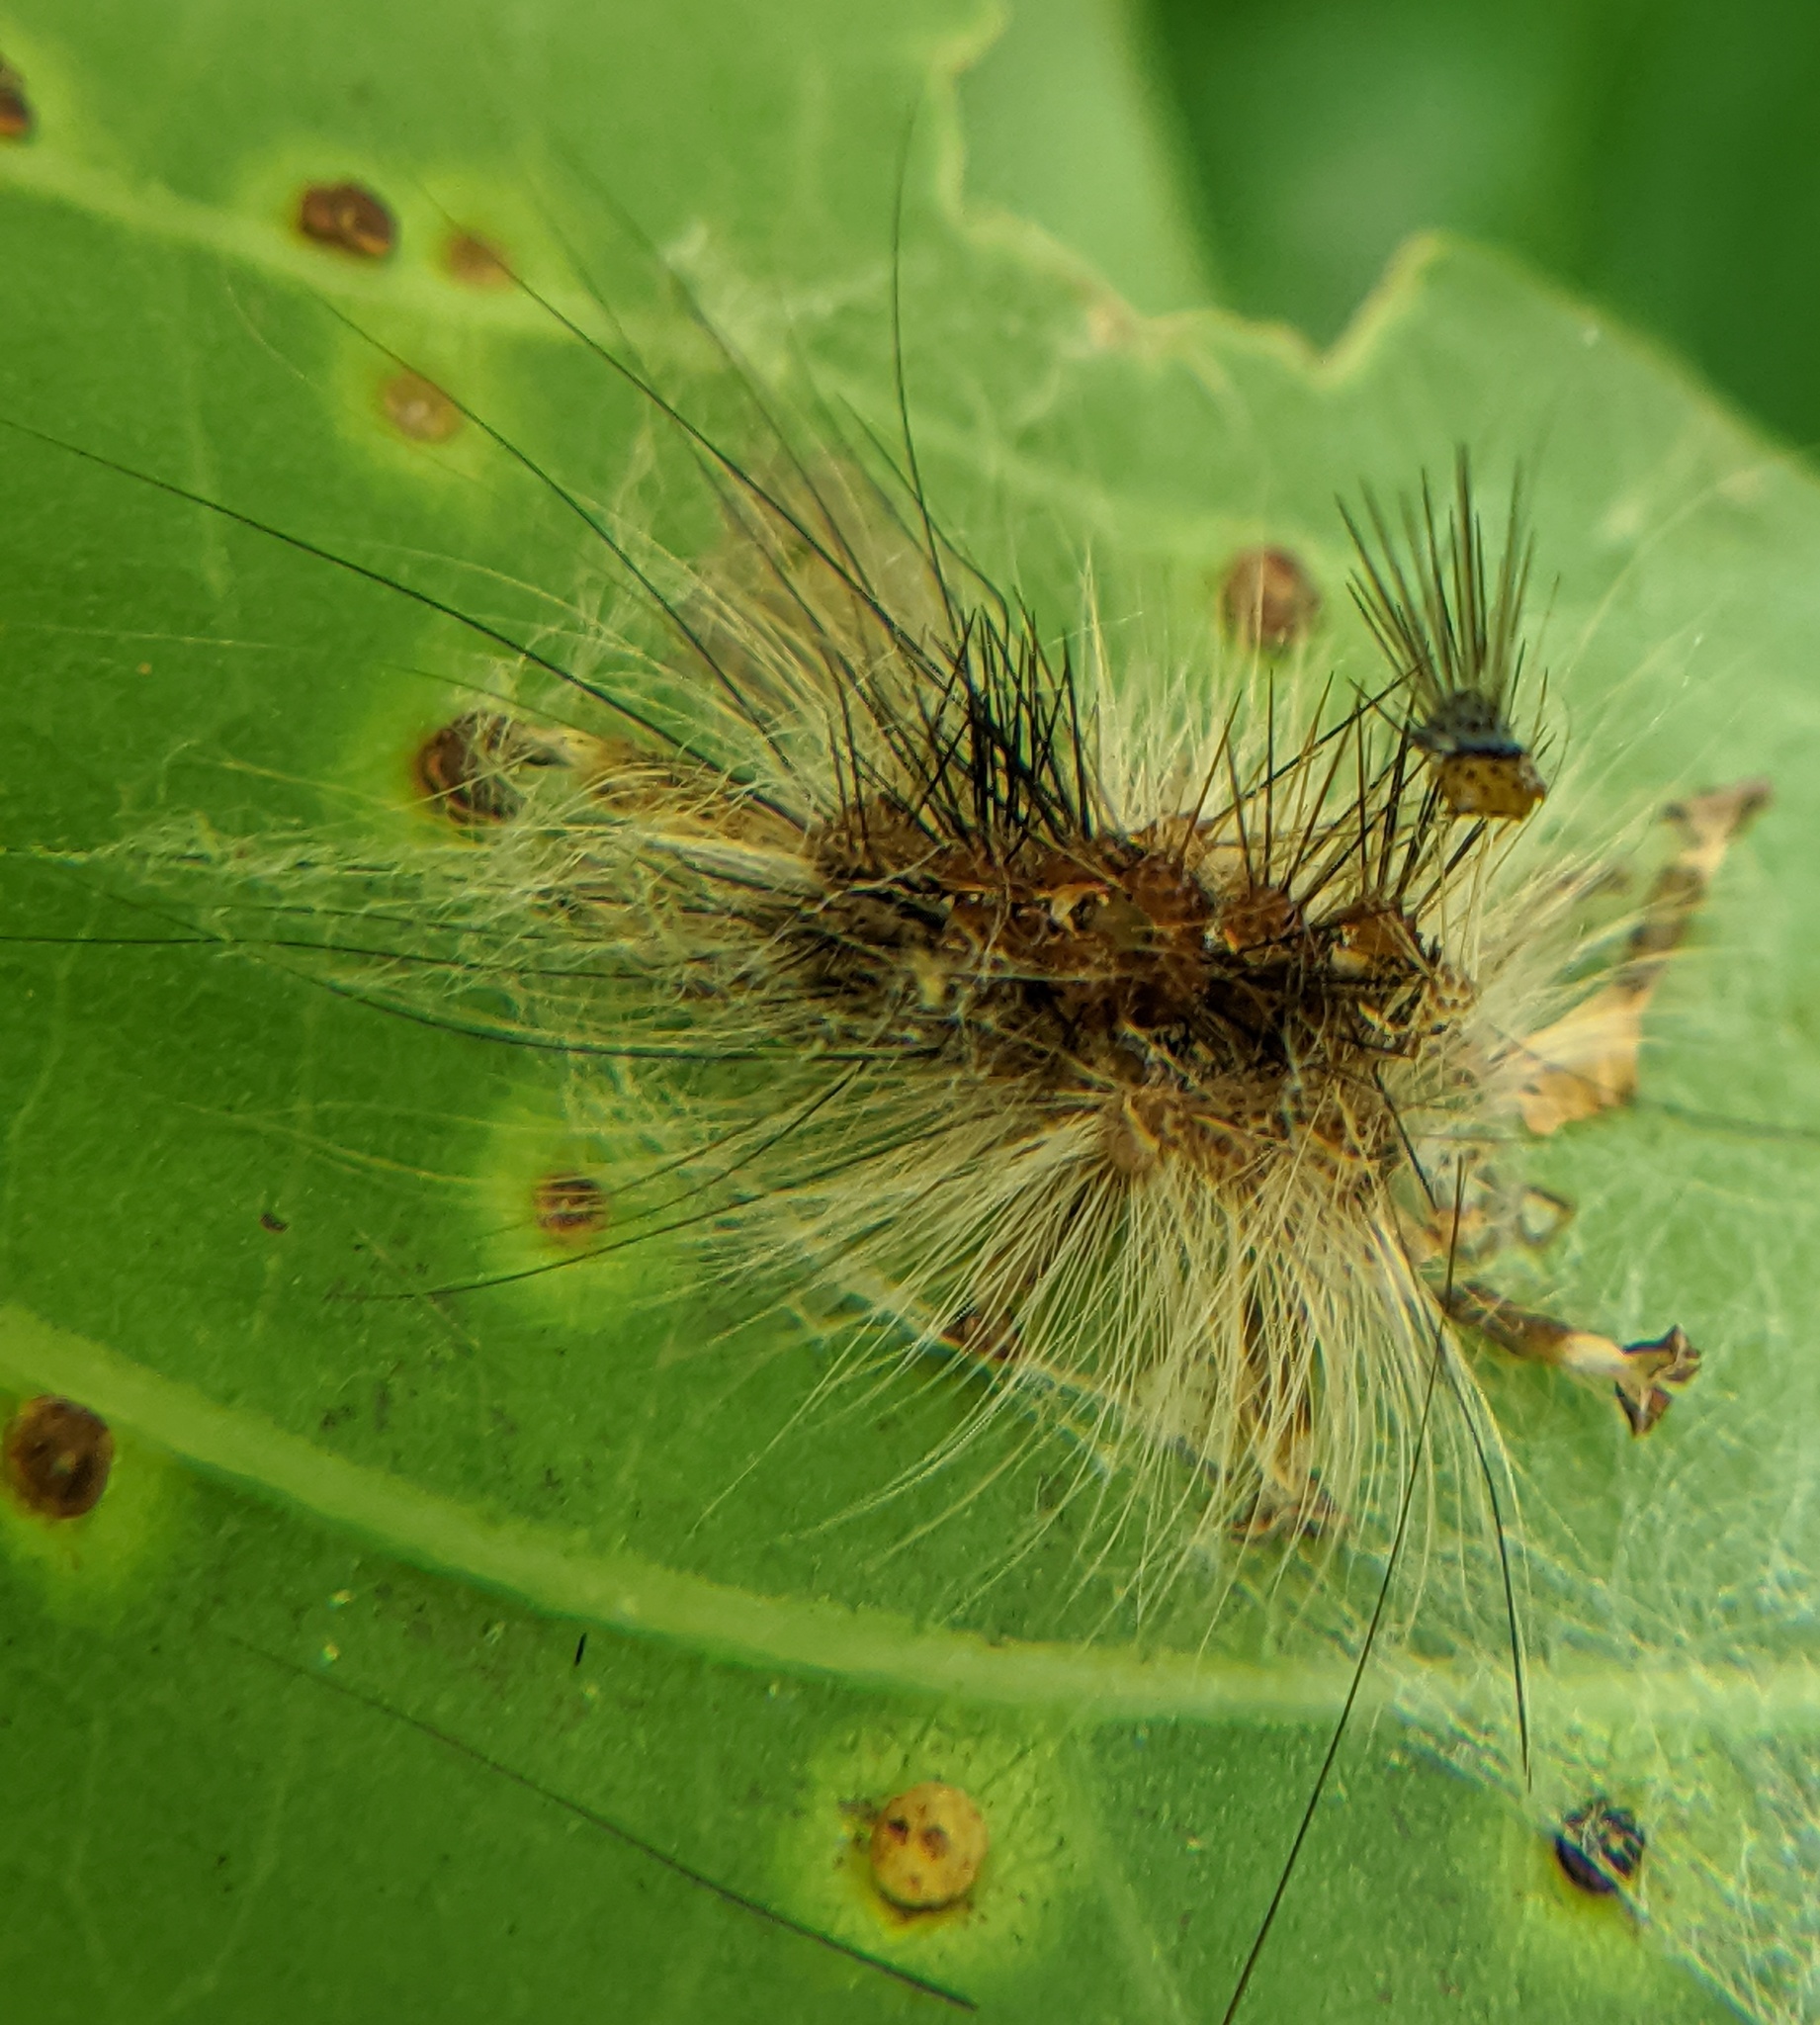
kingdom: Animalia
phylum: Arthropoda
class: Insecta
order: Lepidoptera
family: Erebidae
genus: Lymantria
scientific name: Lymantria dispar
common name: Gypsy moth
